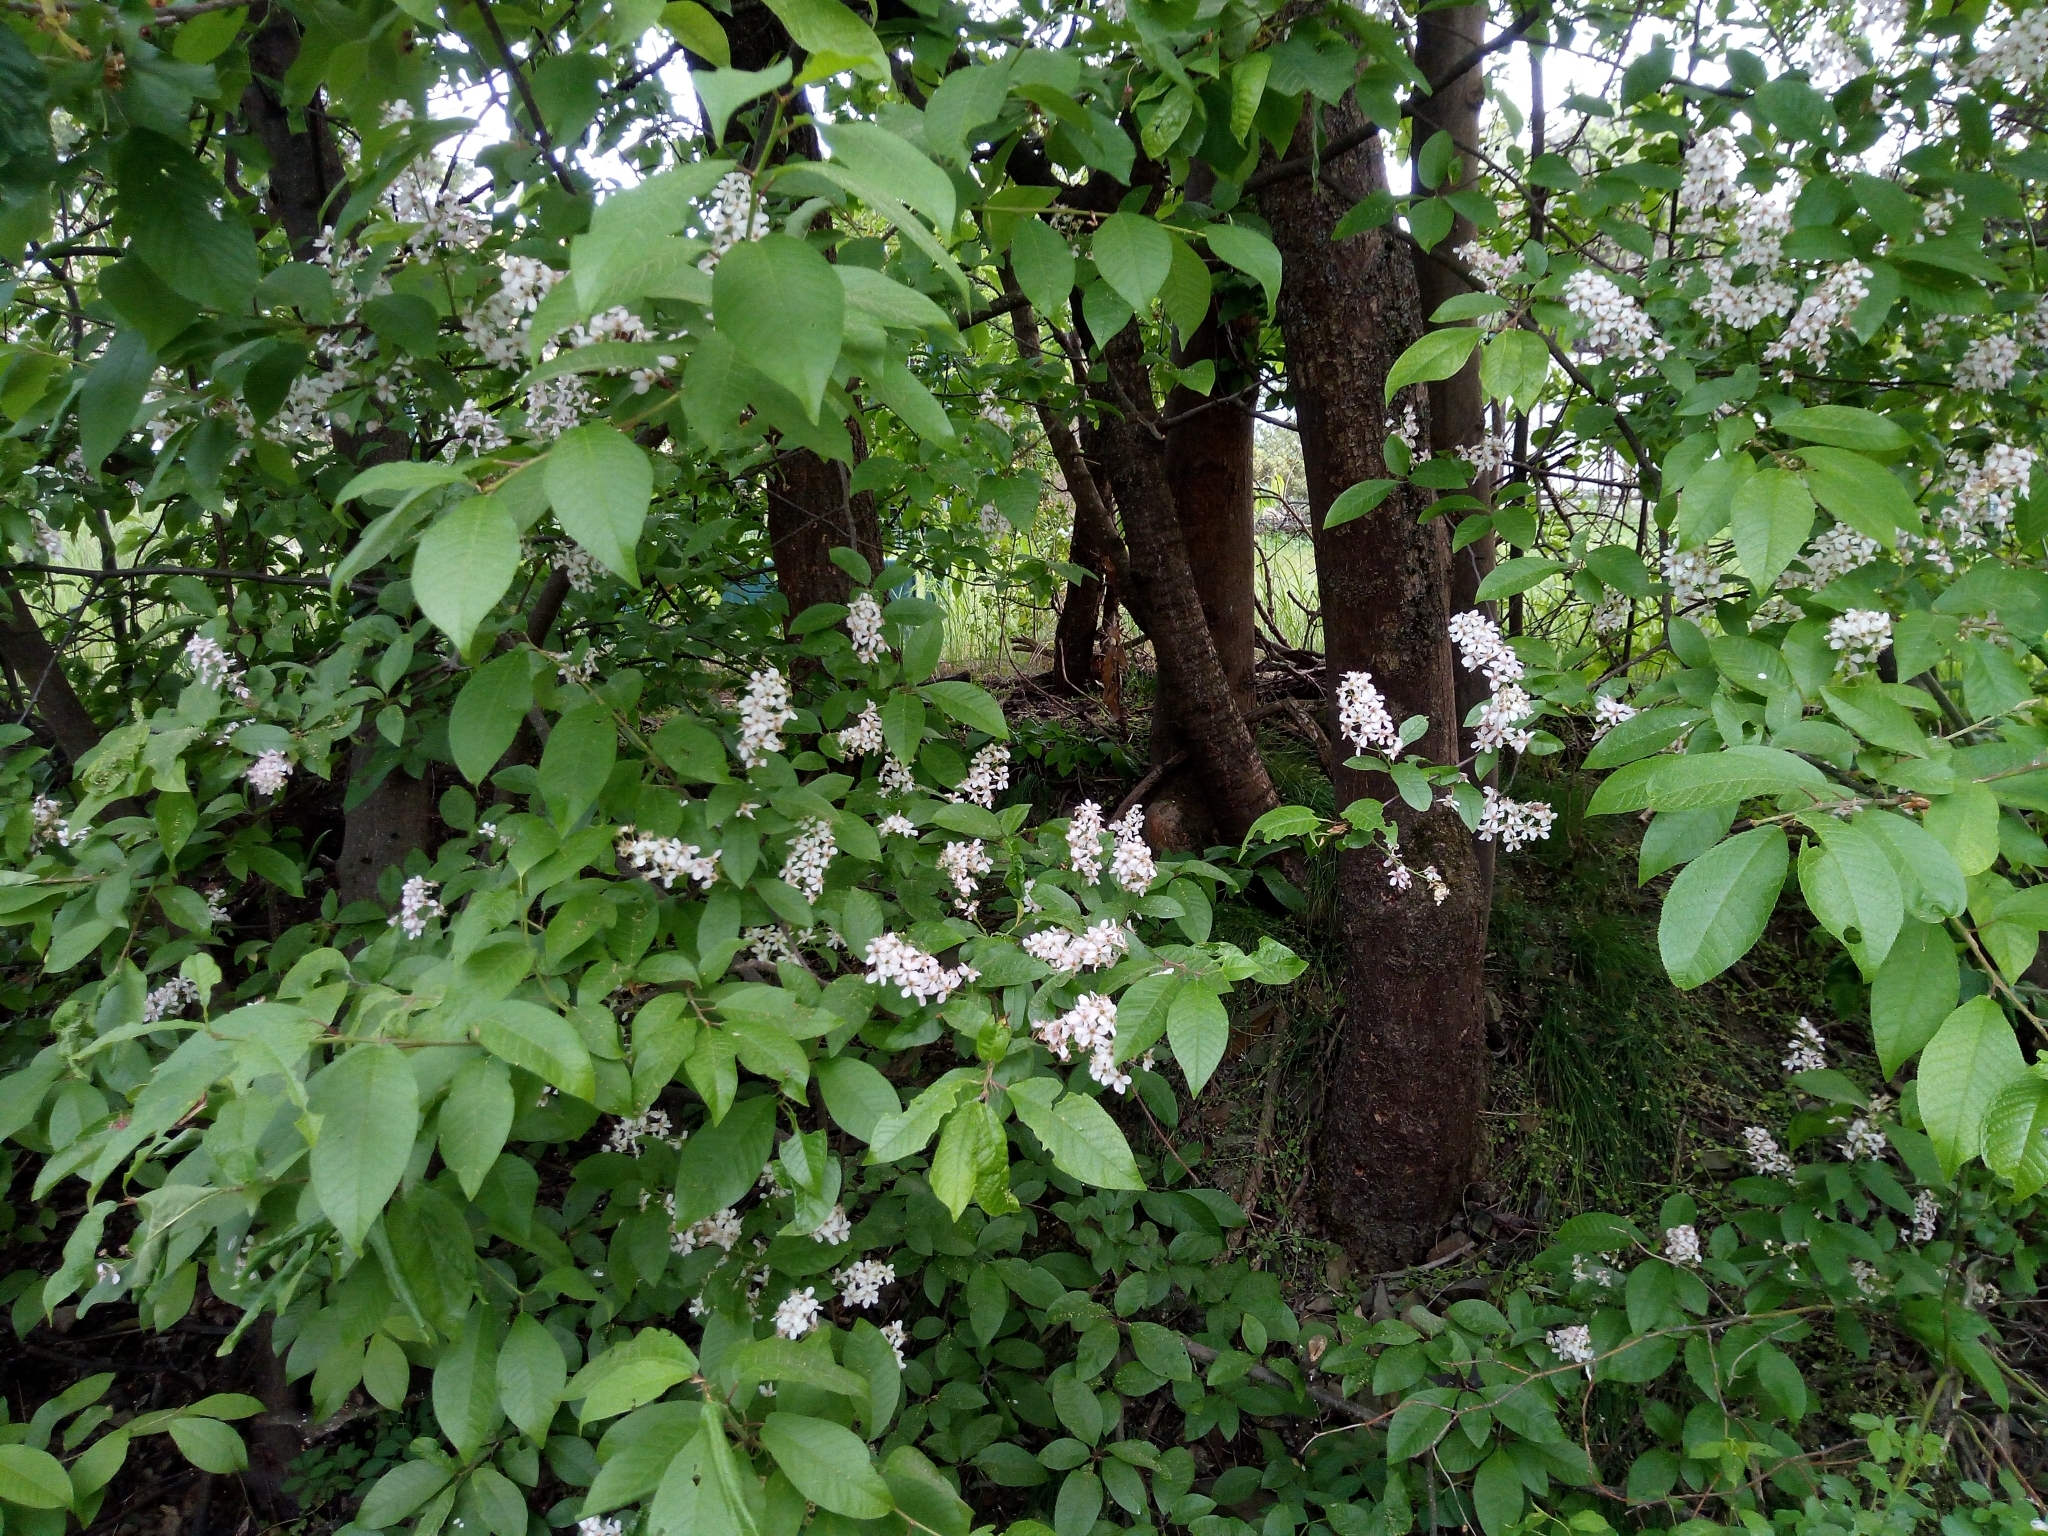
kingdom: Plantae
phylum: Tracheophyta
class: Magnoliopsida
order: Rosales
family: Rosaceae
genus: Prunus
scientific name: Prunus padus
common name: Bird cherry
